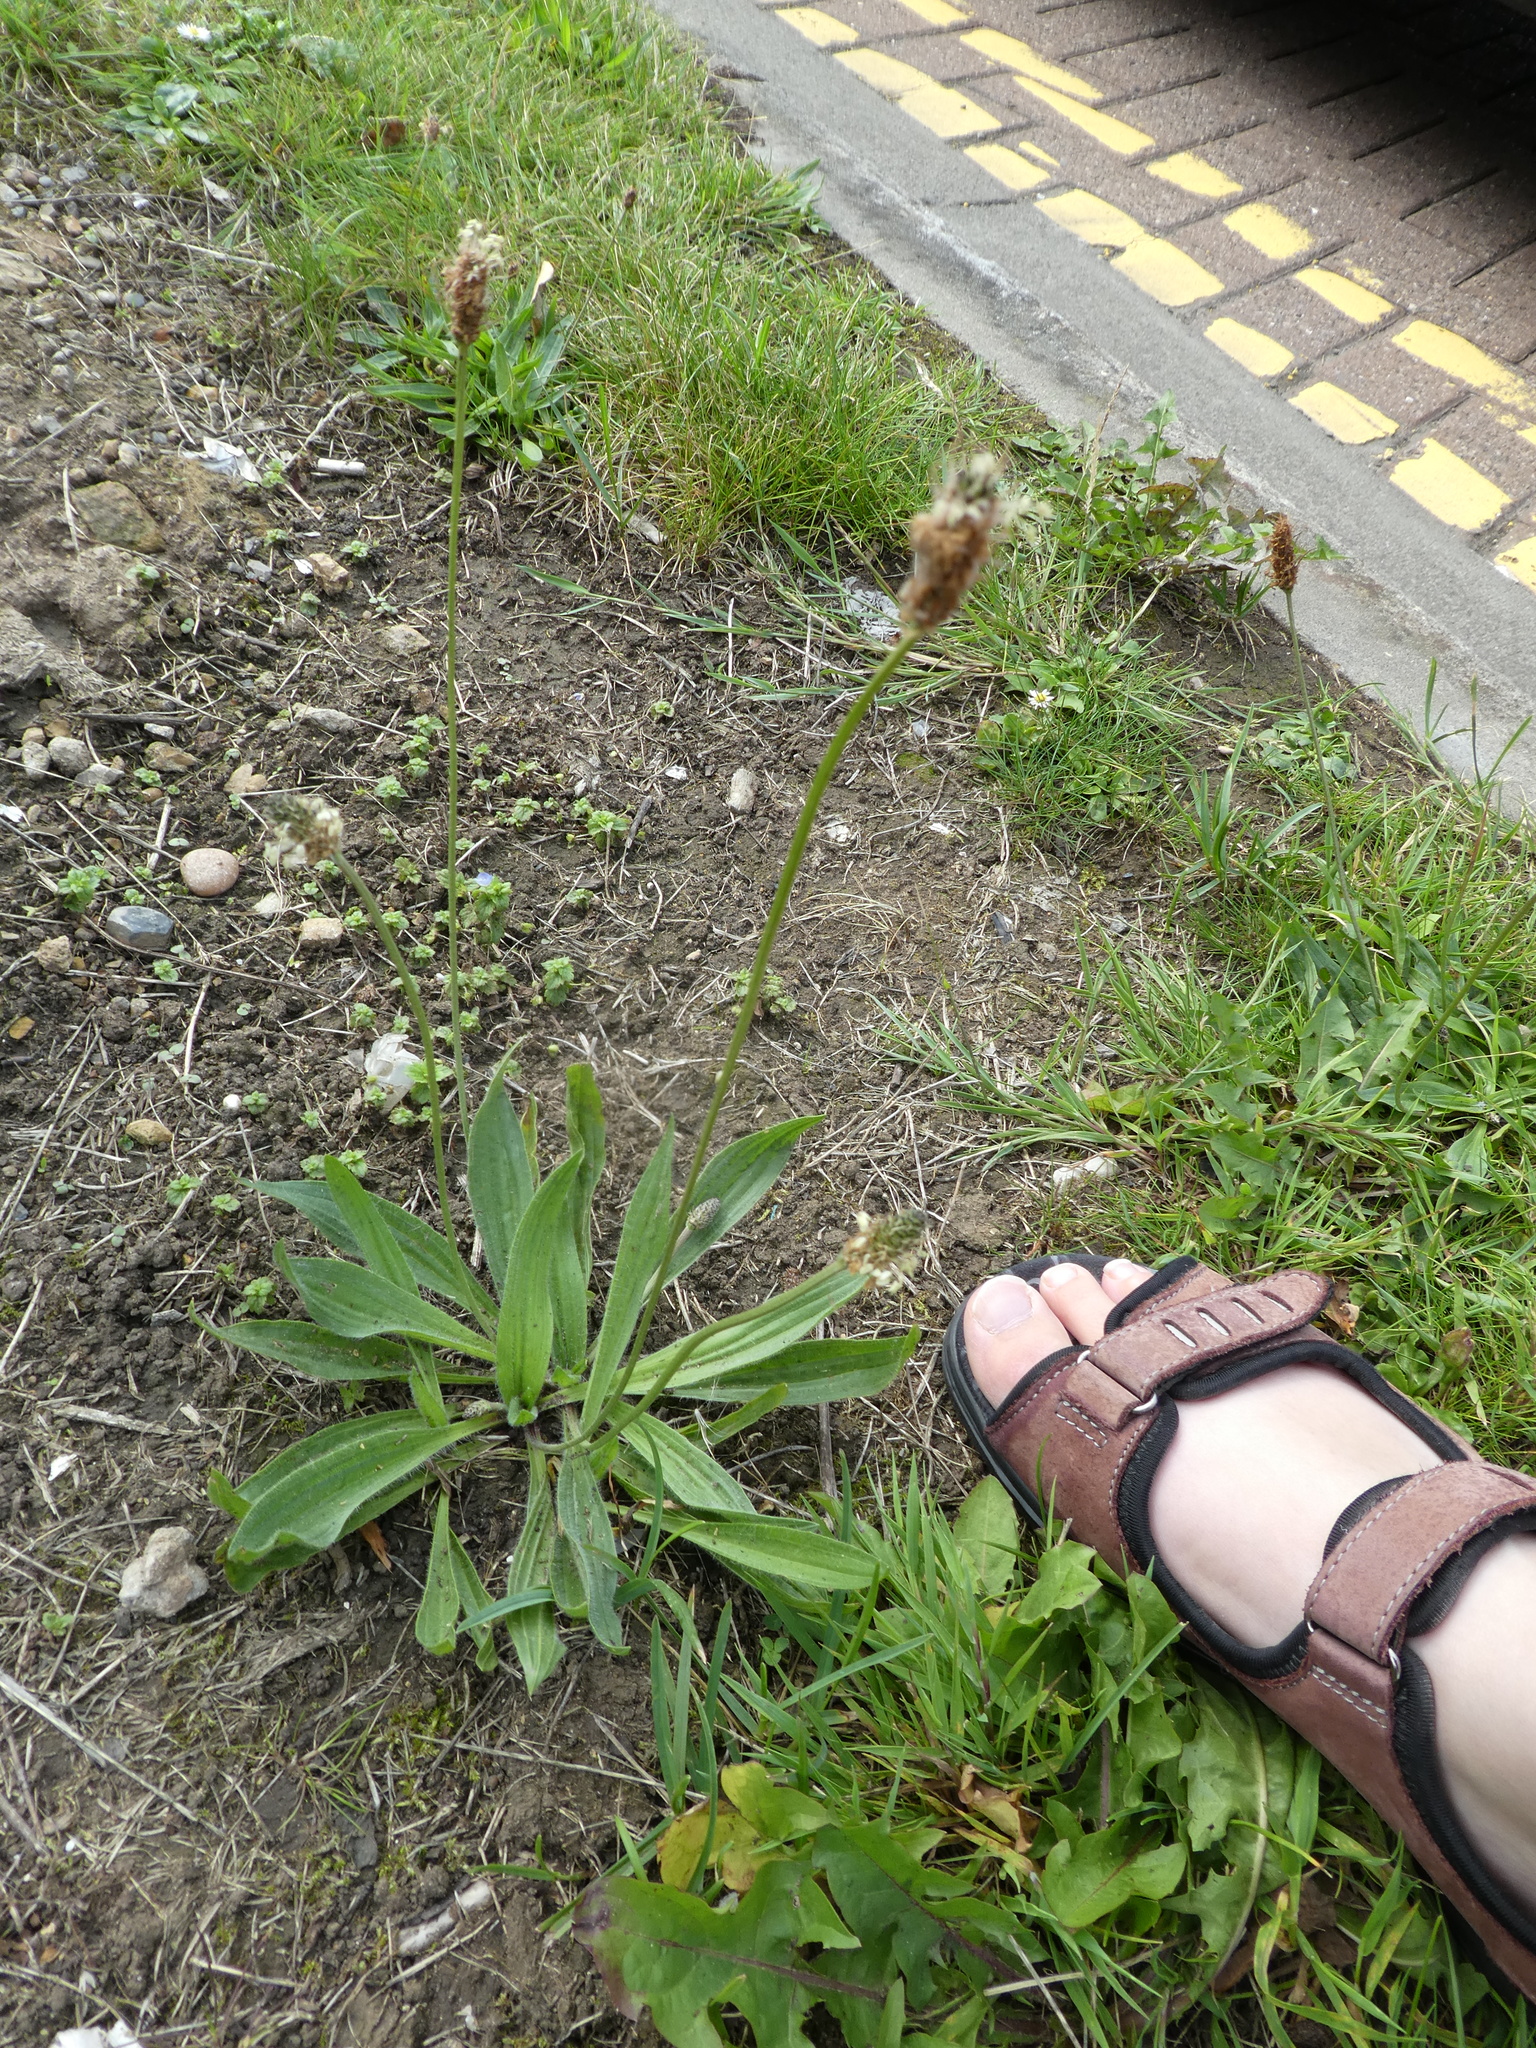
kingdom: Plantae
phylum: Tracheophyta
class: Magnoliopsida
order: Lamiales
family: Plantaginaceae
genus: Plantago
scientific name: Plantago lanceolata
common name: Ribwort plantain
